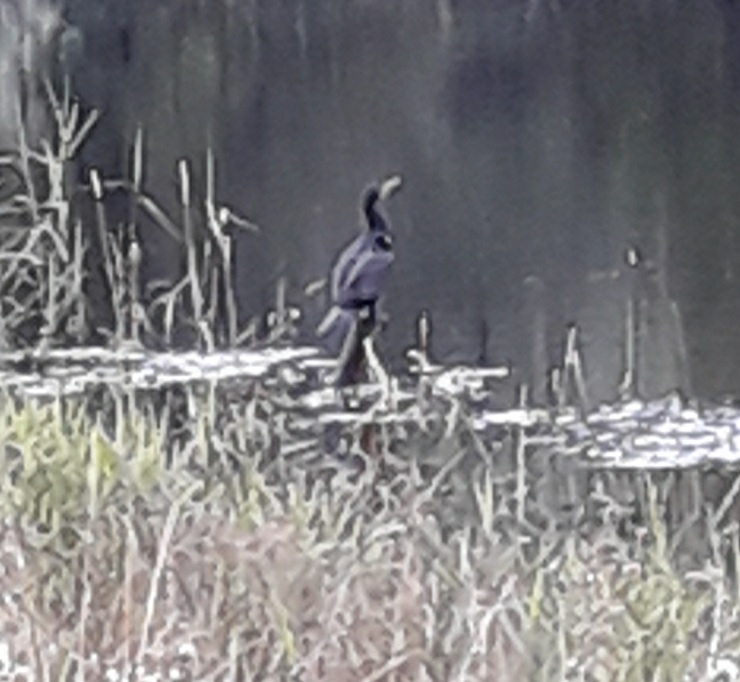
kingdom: Animalia
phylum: Chordata
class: Aves
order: Suliformes
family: Phalacrocoracidae
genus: Phalacrocorax
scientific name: Phalacrocorax carbo
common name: Great cormorant
